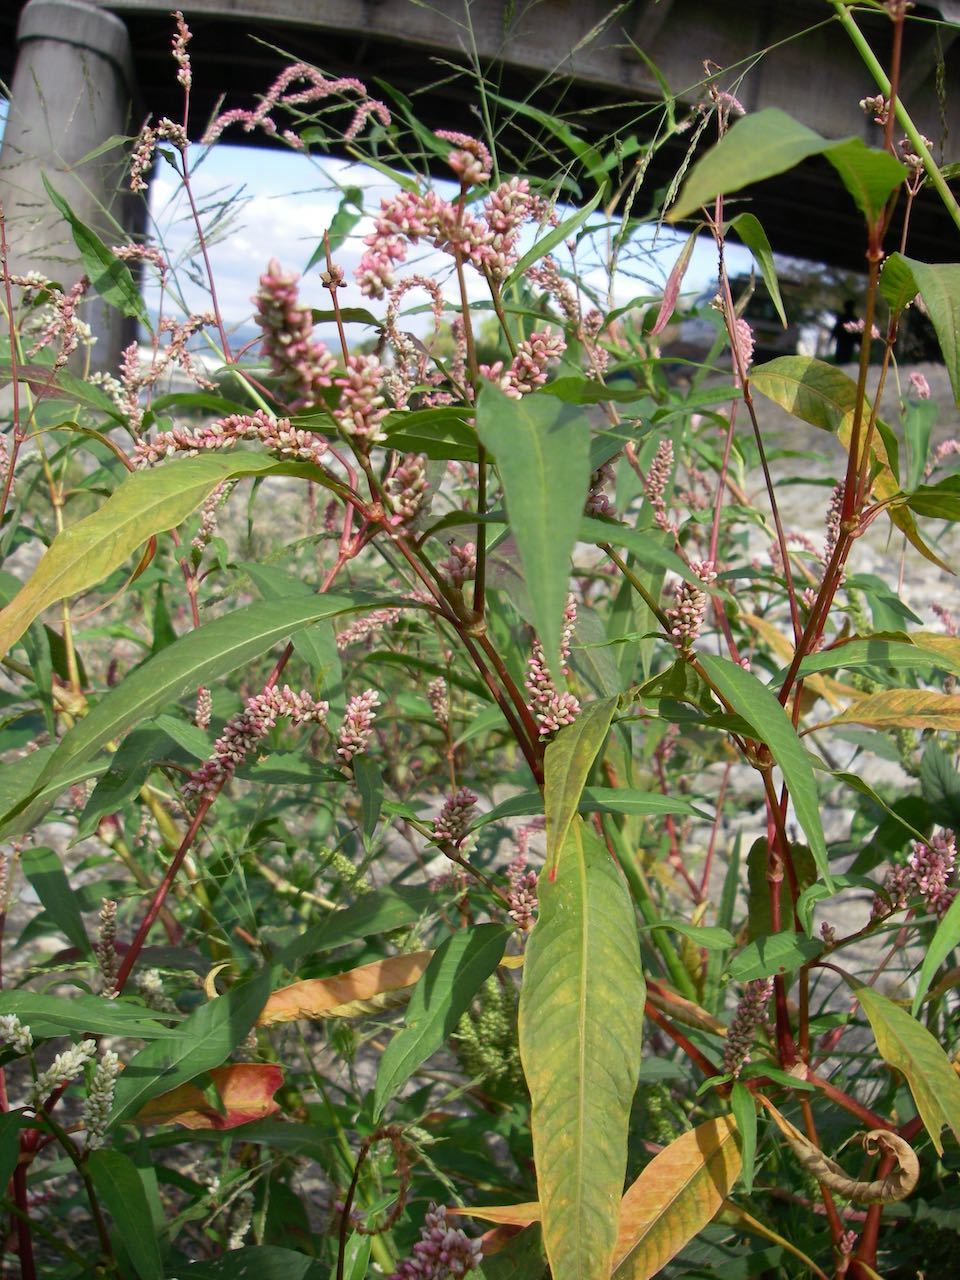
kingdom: Plantae
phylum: Tracheophyta
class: Magnoliopsida
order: Caryophyllales
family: Polygonaceae
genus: Persicaria
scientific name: Persicaria lapathifolia
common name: Curlytop knotweed
